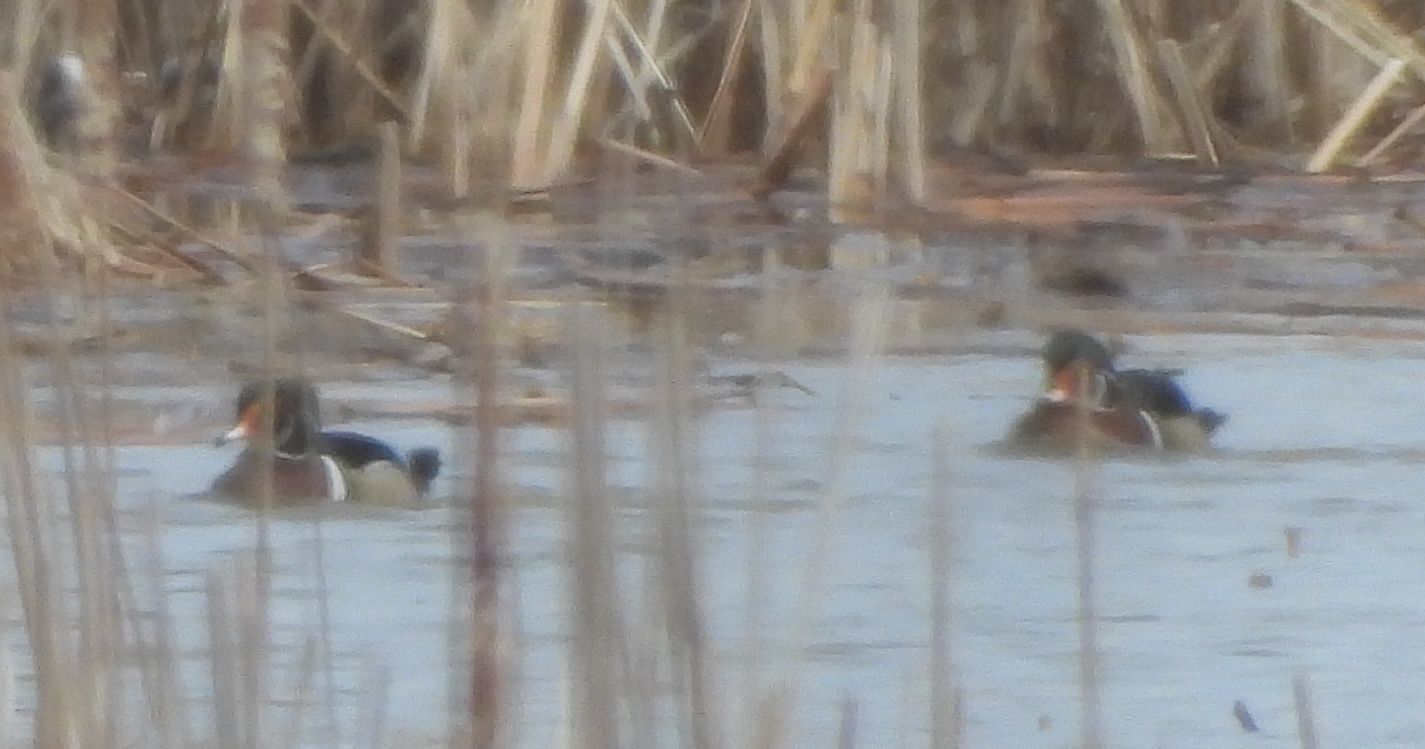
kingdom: Animalia
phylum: Chordata
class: Aves
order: Anseriformes
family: Anatidae
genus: Aix
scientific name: Aix sponsa
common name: Wood duck
